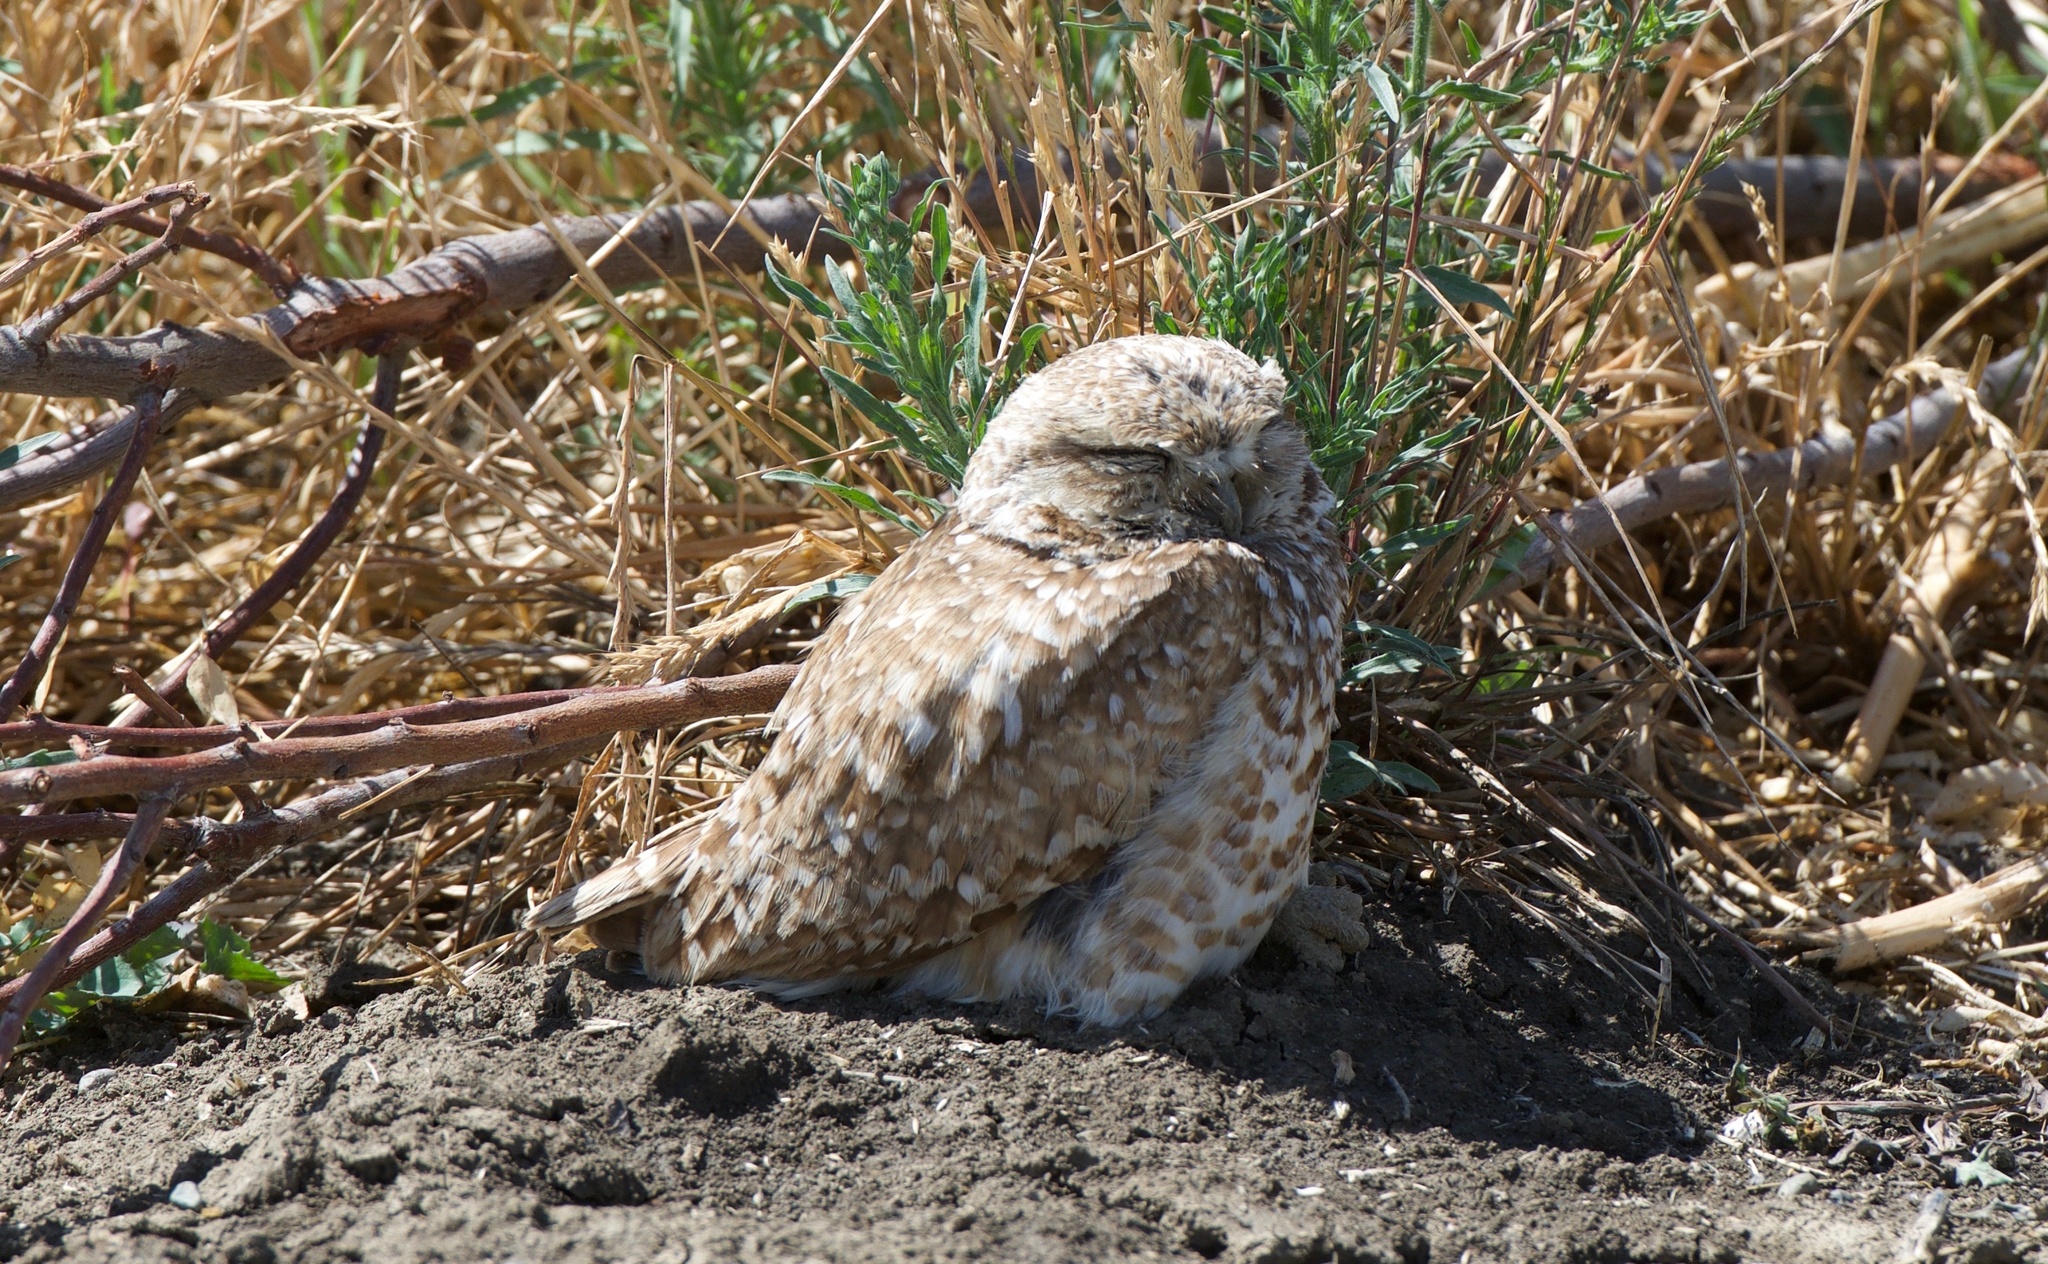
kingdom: Animalia
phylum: Chordata
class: Aves
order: Strigiformes
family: Strigidae
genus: Athene
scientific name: Athene cunicularia
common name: Burrowing owl
